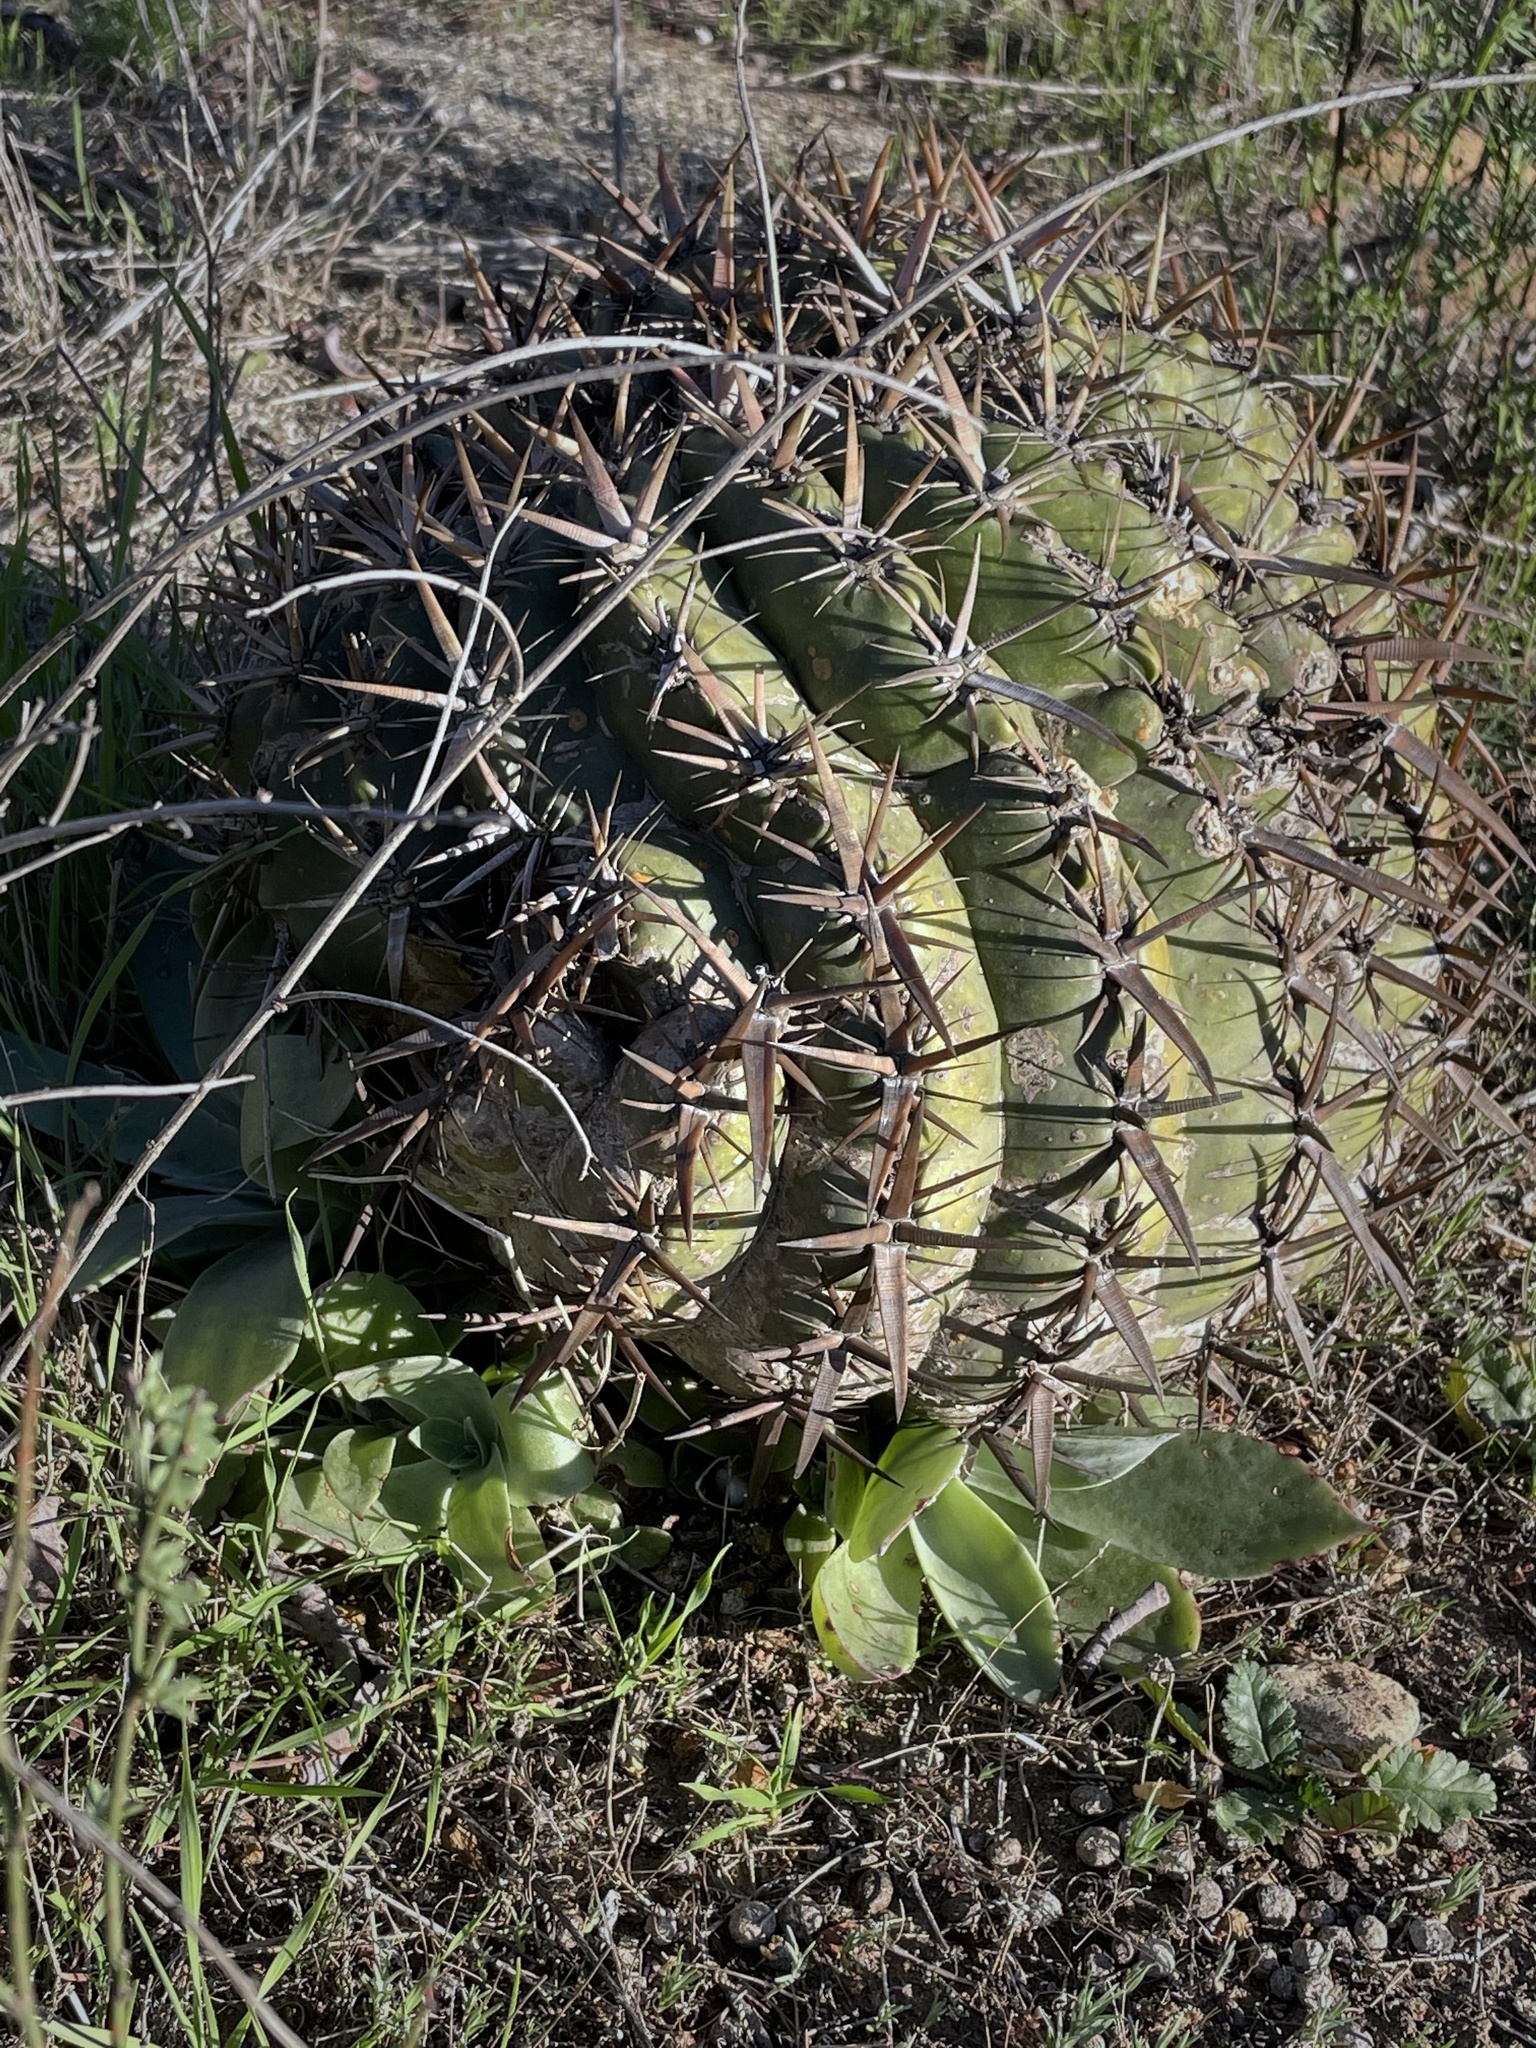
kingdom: Plantae
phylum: Tracheophyta
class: Magnoliopsida
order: Saxifragales
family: Crassulaceae
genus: Dudleya
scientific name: Dudleya pulverulenta
